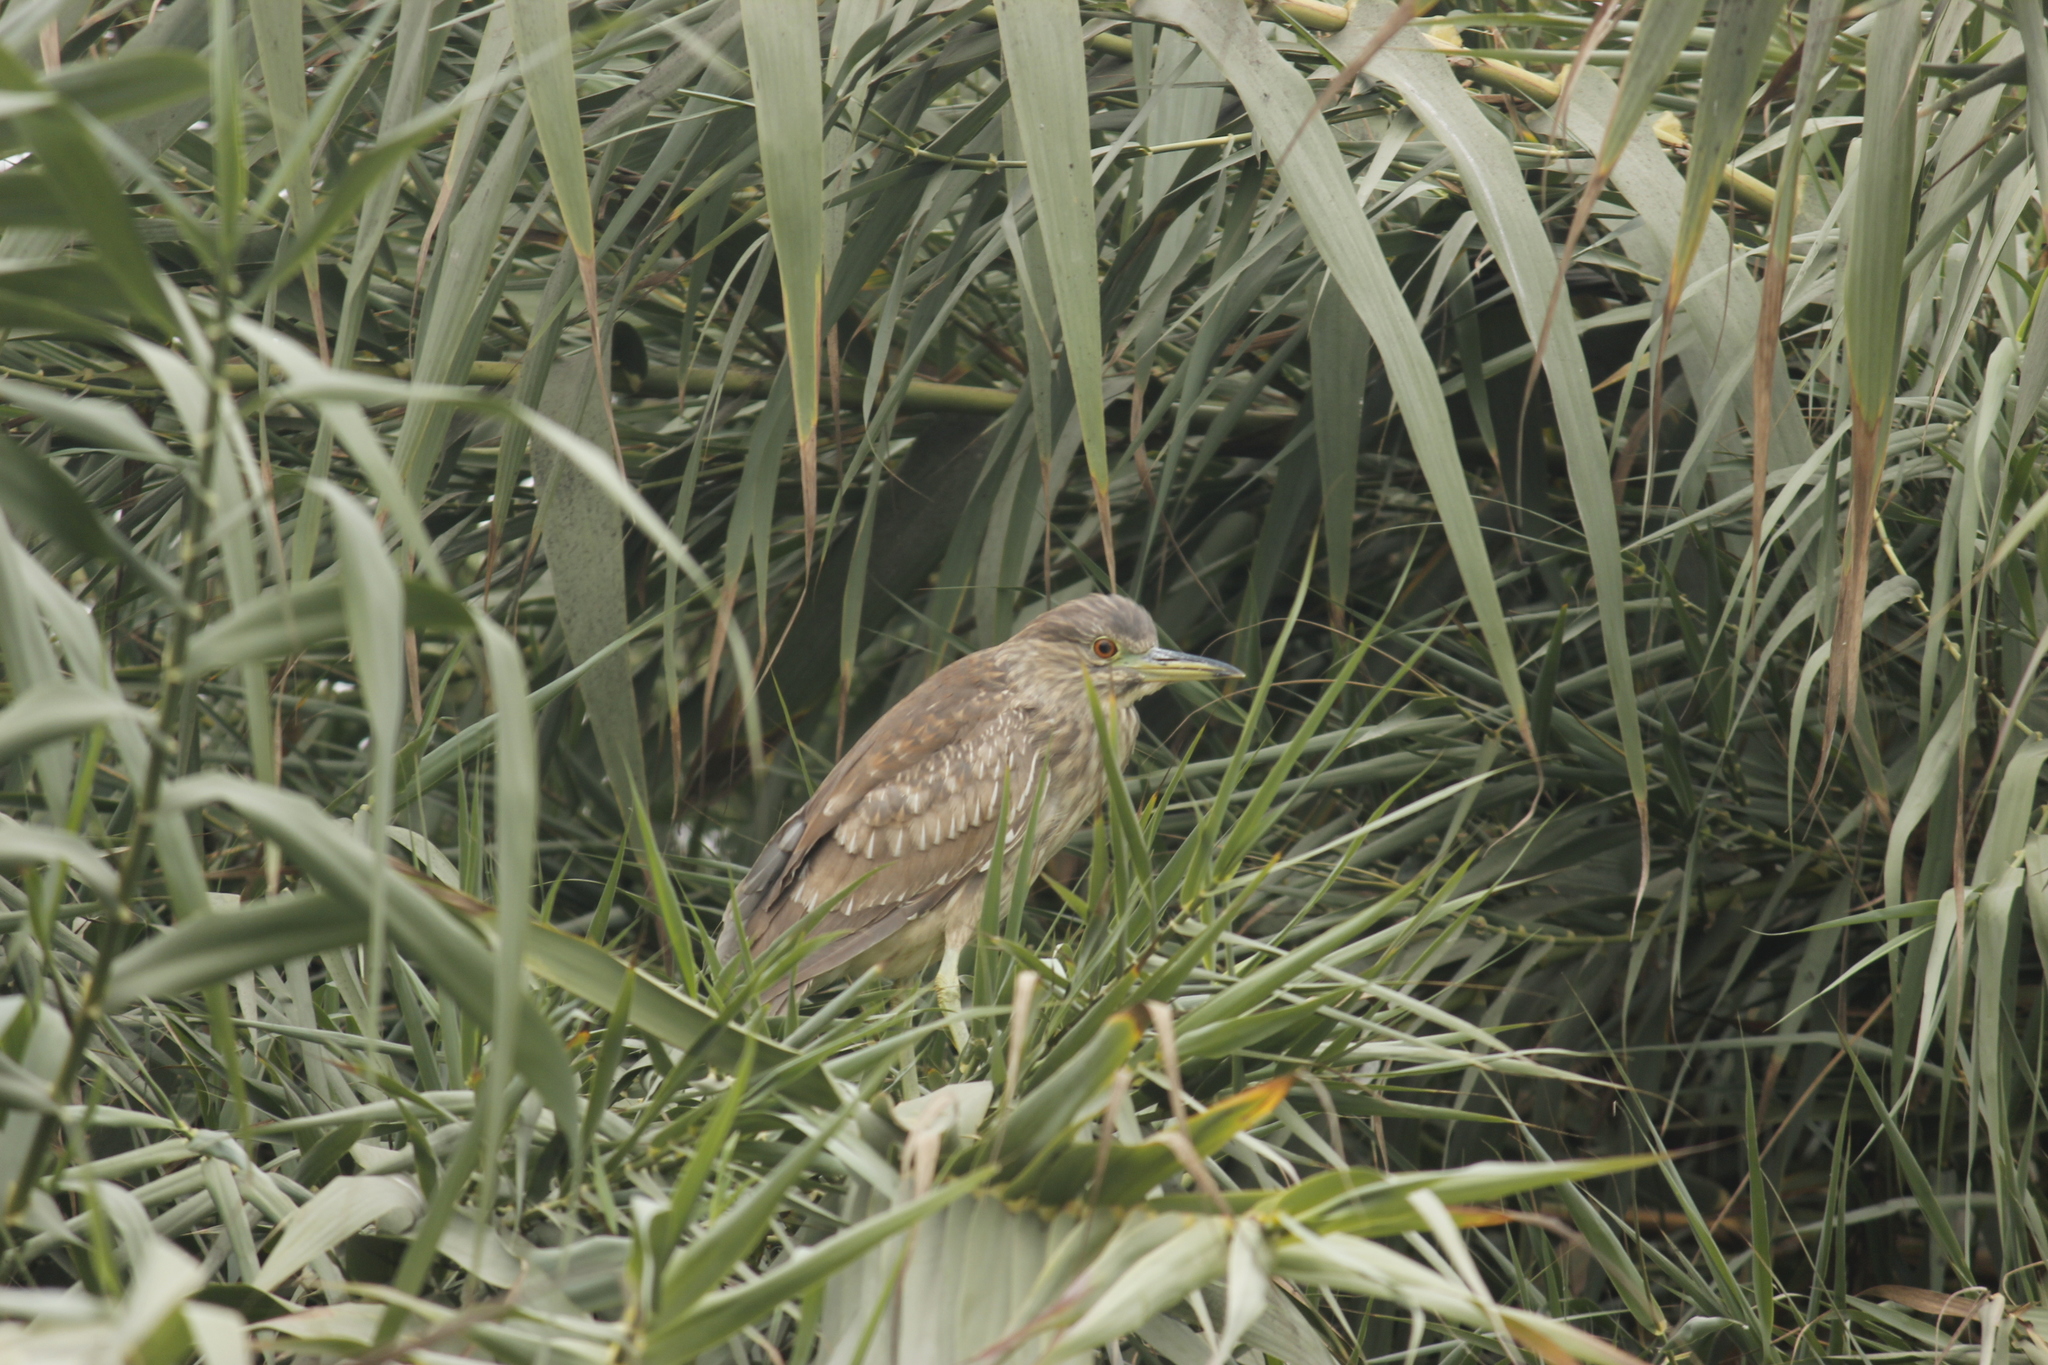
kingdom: Animalia
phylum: Chordata
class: Aves
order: Pelecaniformes
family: Ardeidae
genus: Nycticorax
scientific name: Nycticorax nycticorax
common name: Black-crowned night heron
